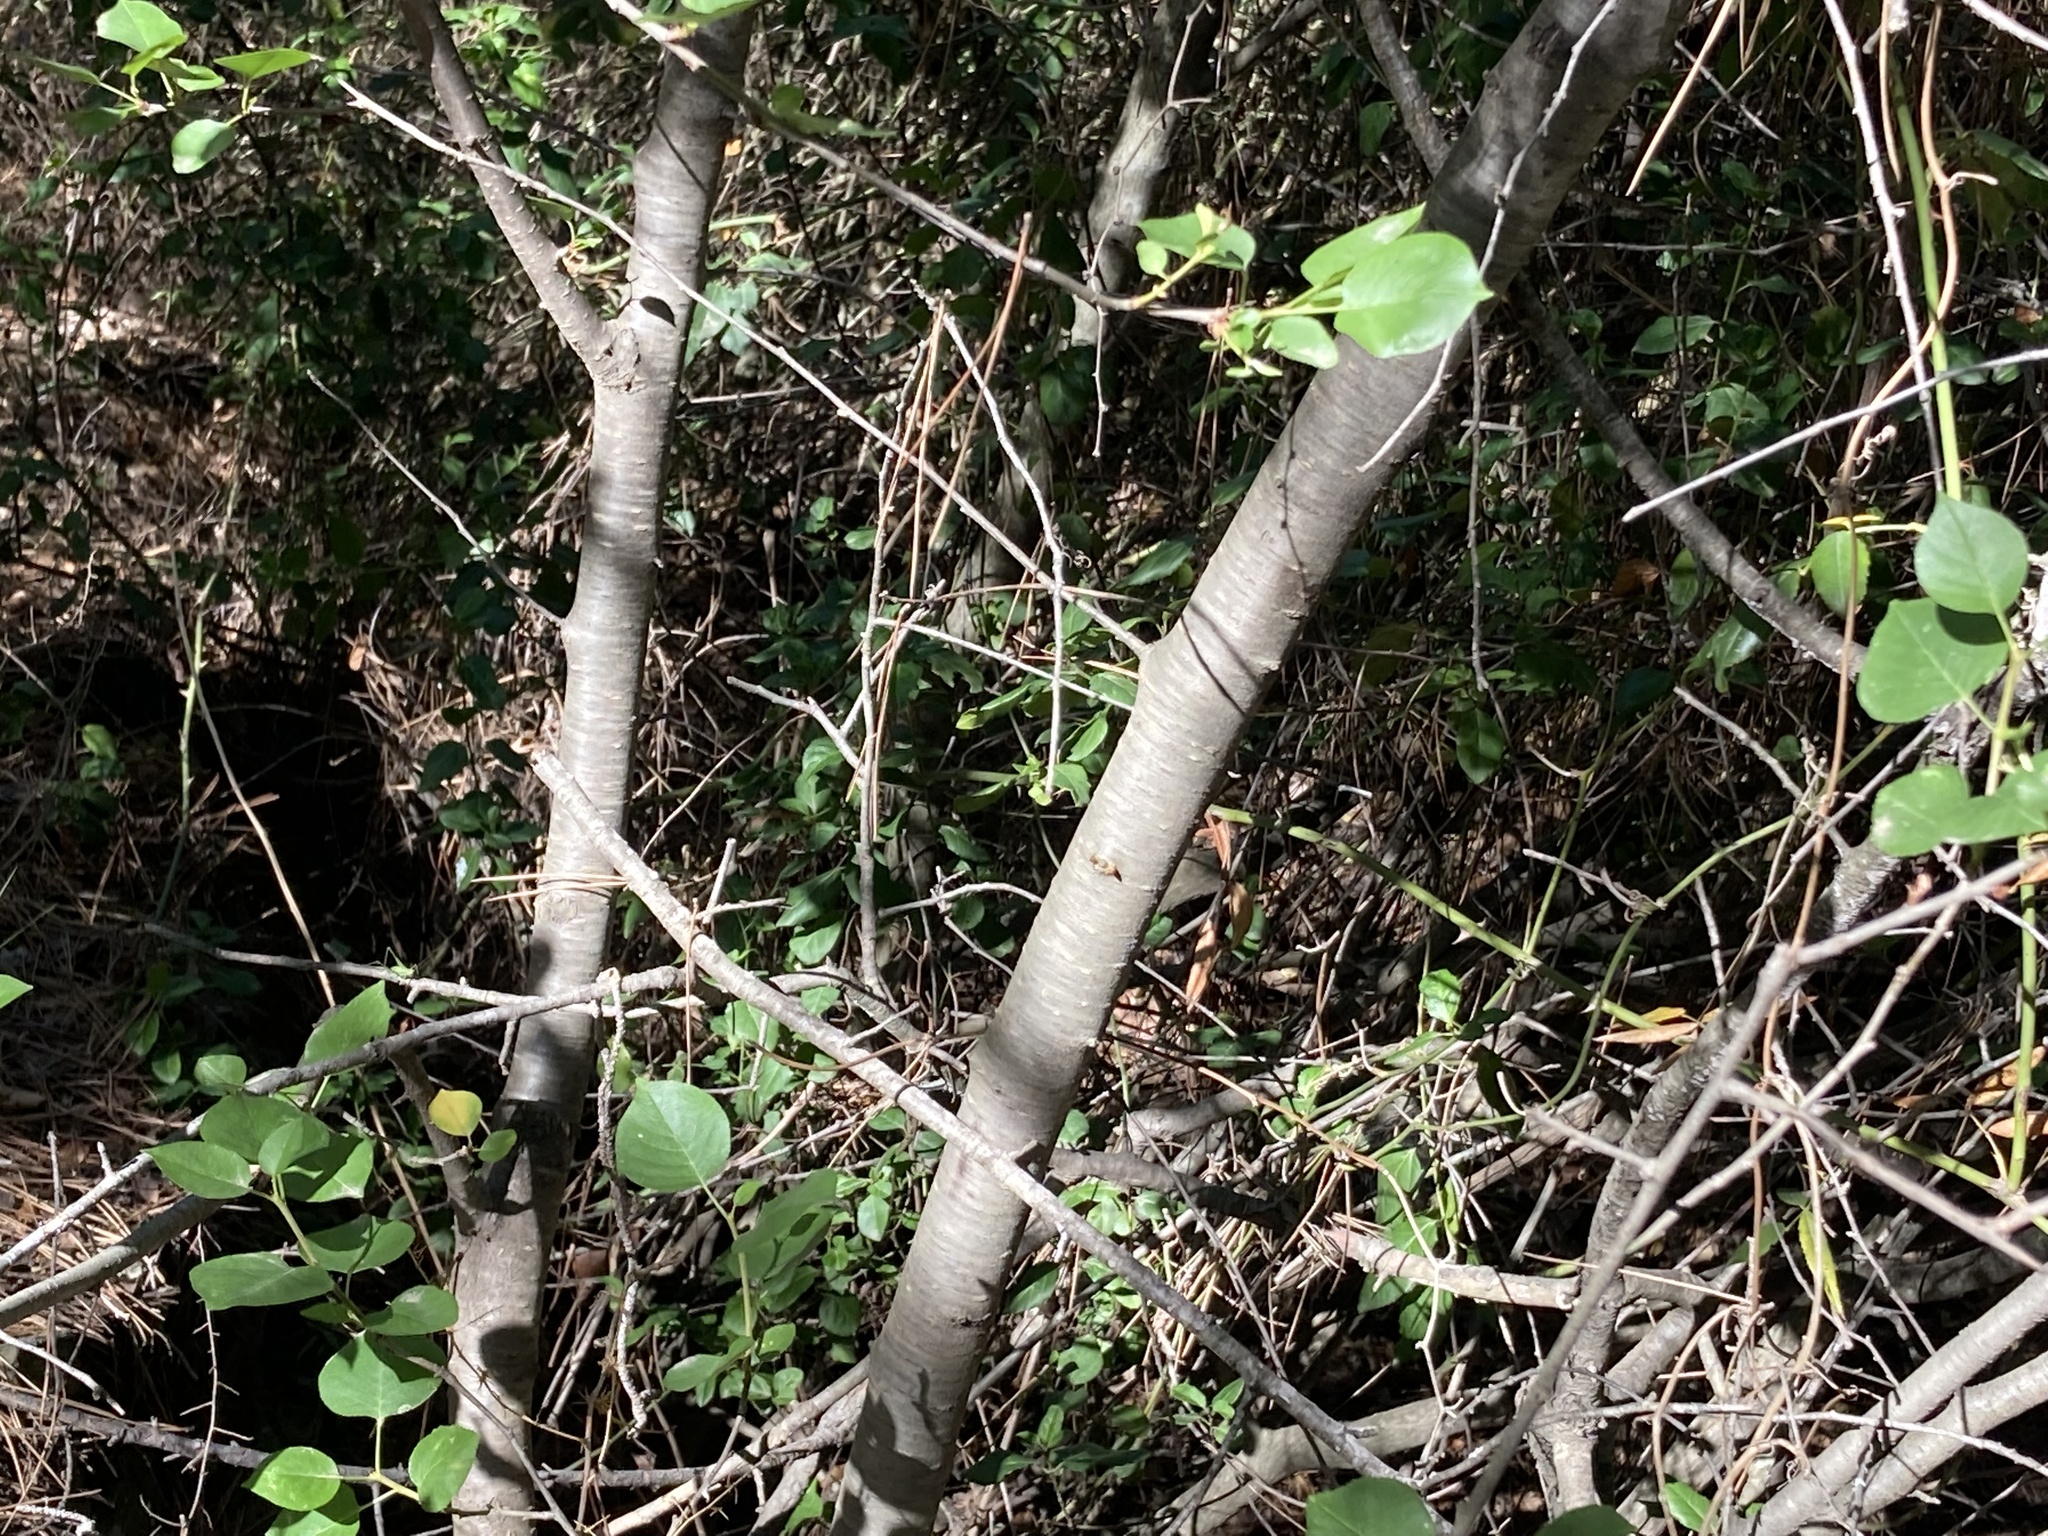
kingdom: Plantae
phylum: Tracheophyta
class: Magnoliopsida
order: Rosales
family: Rosaceae
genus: Prunus
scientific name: Prunus mahaleb
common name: Mahaleb cherry
